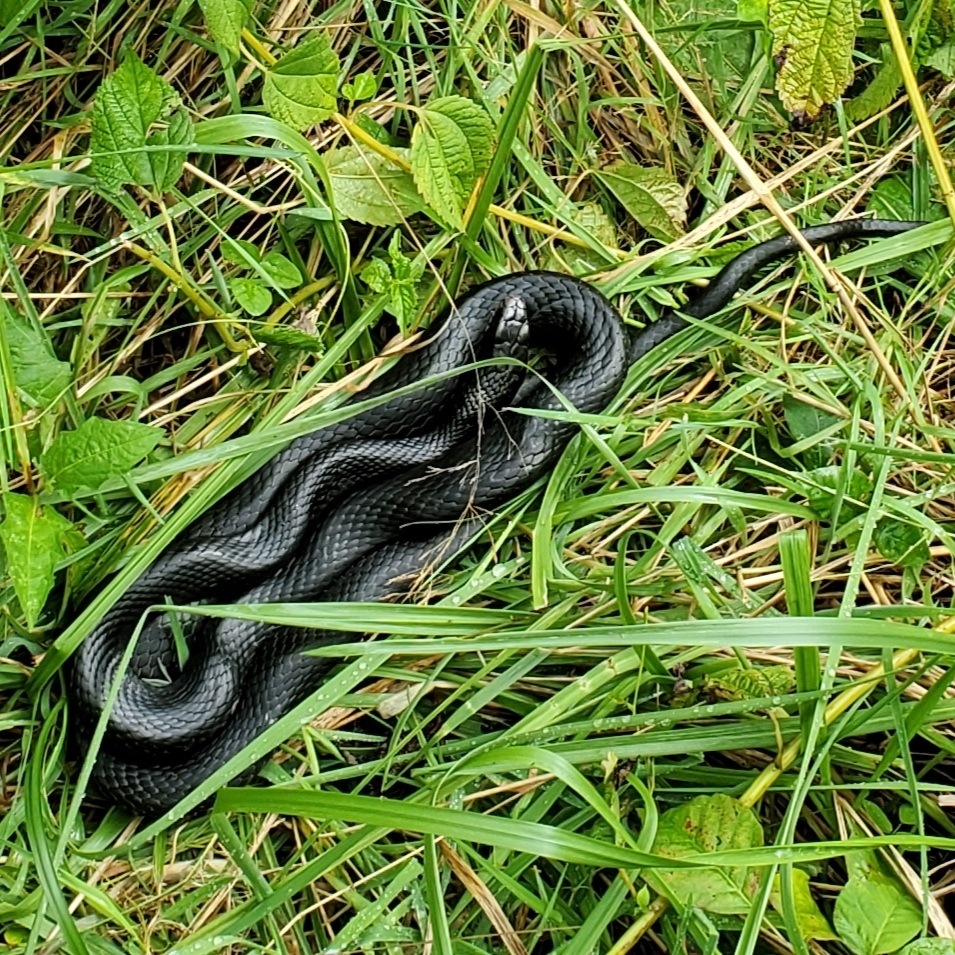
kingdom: Animalia
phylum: Chordata
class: Squamata
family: Colubridae
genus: Coluber
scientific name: Coluber constrictor
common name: Eastern racer
